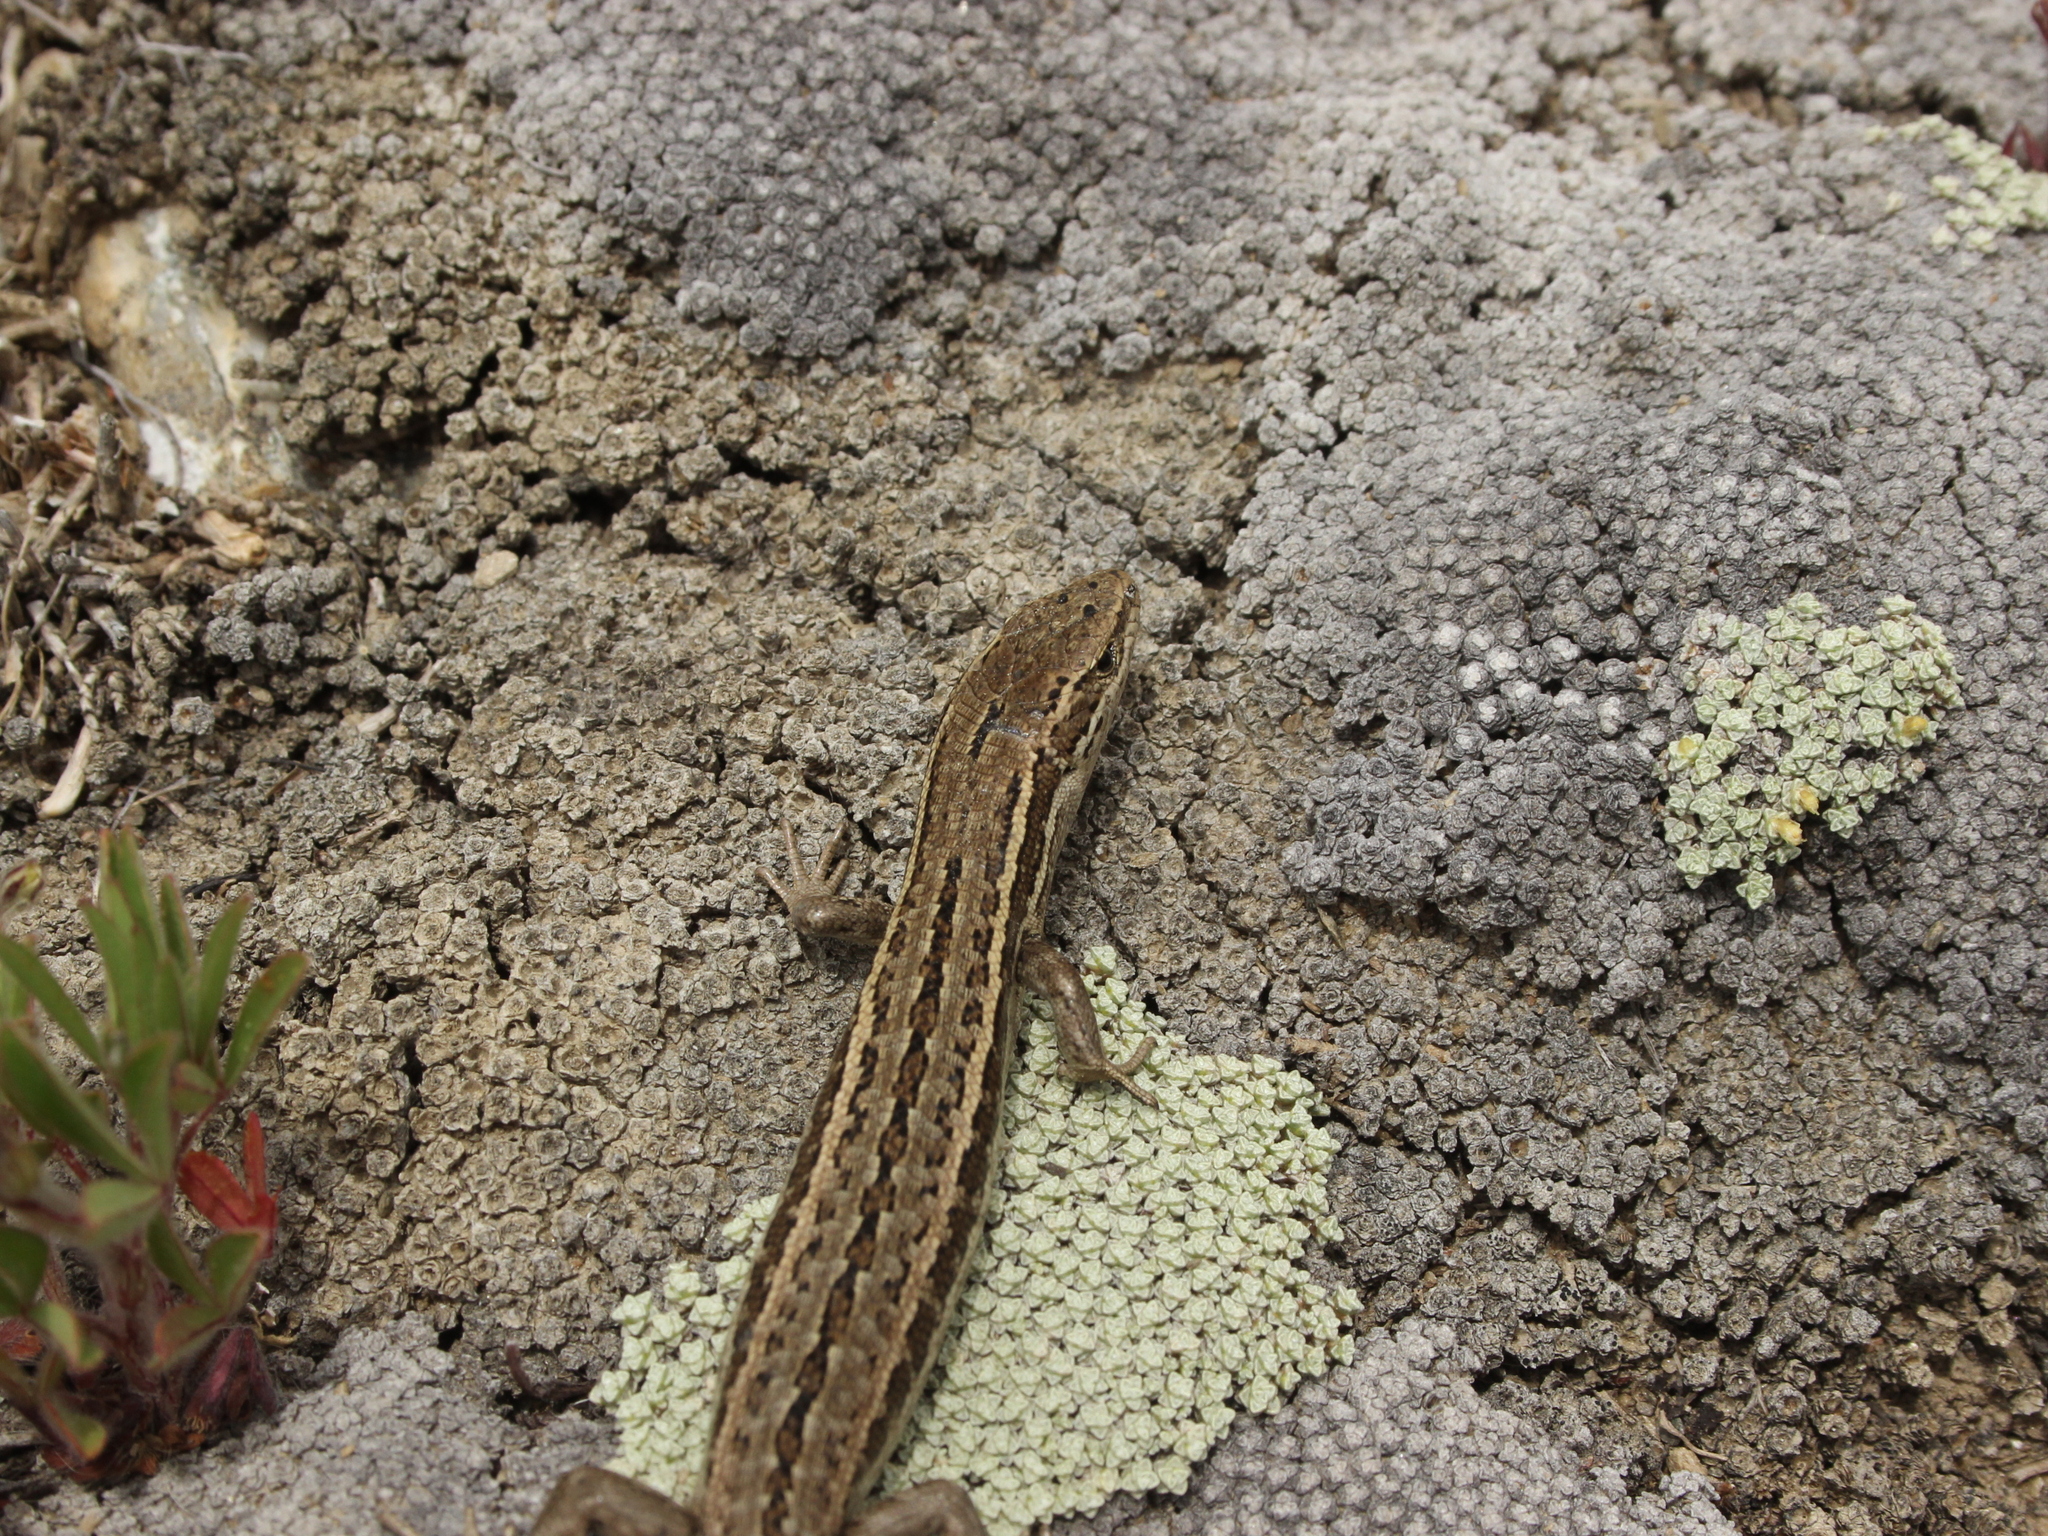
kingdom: Animalia
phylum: Chordata
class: Squamata
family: Scincidae
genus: Oligosoma
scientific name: Oligosoma maccanni
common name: Mccann’s skink
